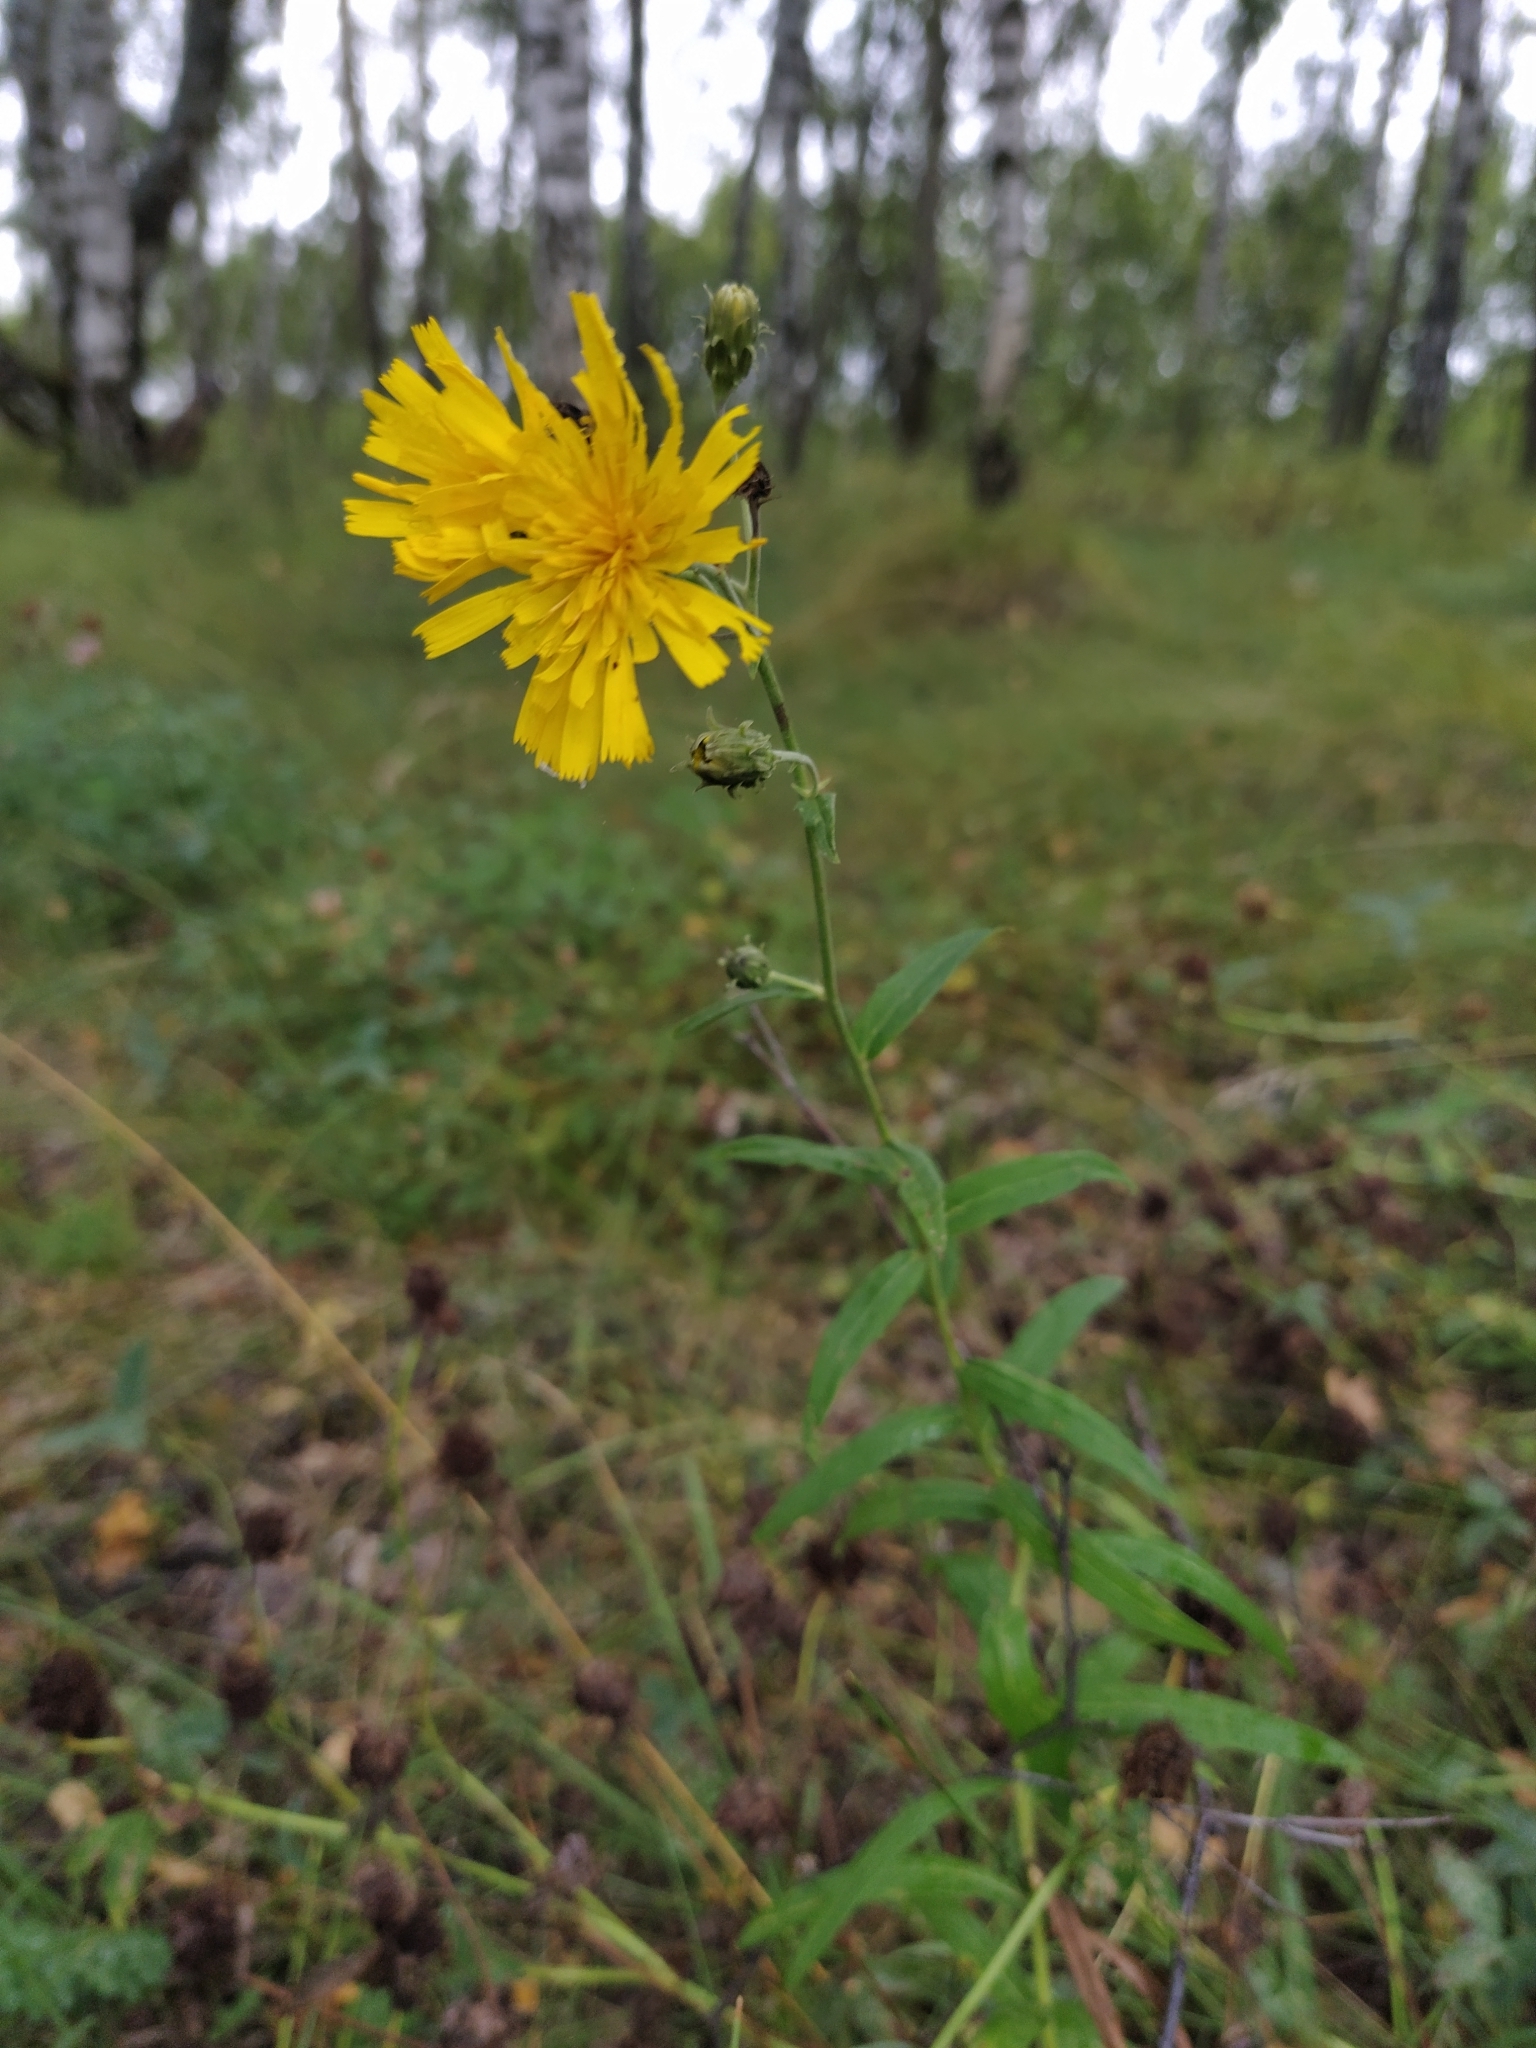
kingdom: Plantae
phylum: Tracheophyta
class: Magnoliopsida
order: Asterales
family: Asteraceae
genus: Hieracium
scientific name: Hieracium umbellatum
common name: Northern hawkweed
